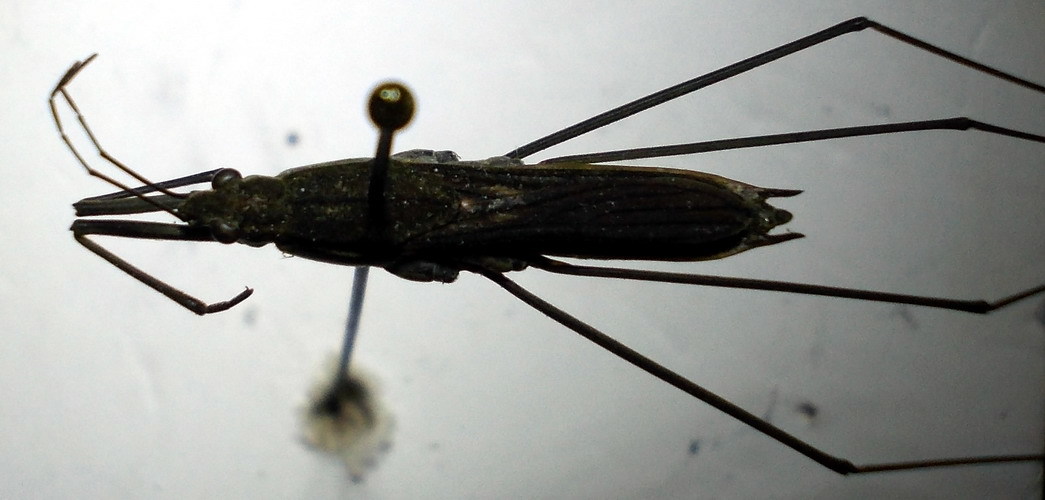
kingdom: Animalia
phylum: Arthropoda
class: Insecta
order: Hemiptera
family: Gerridae
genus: Aquarius
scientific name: Aquarius paludum
